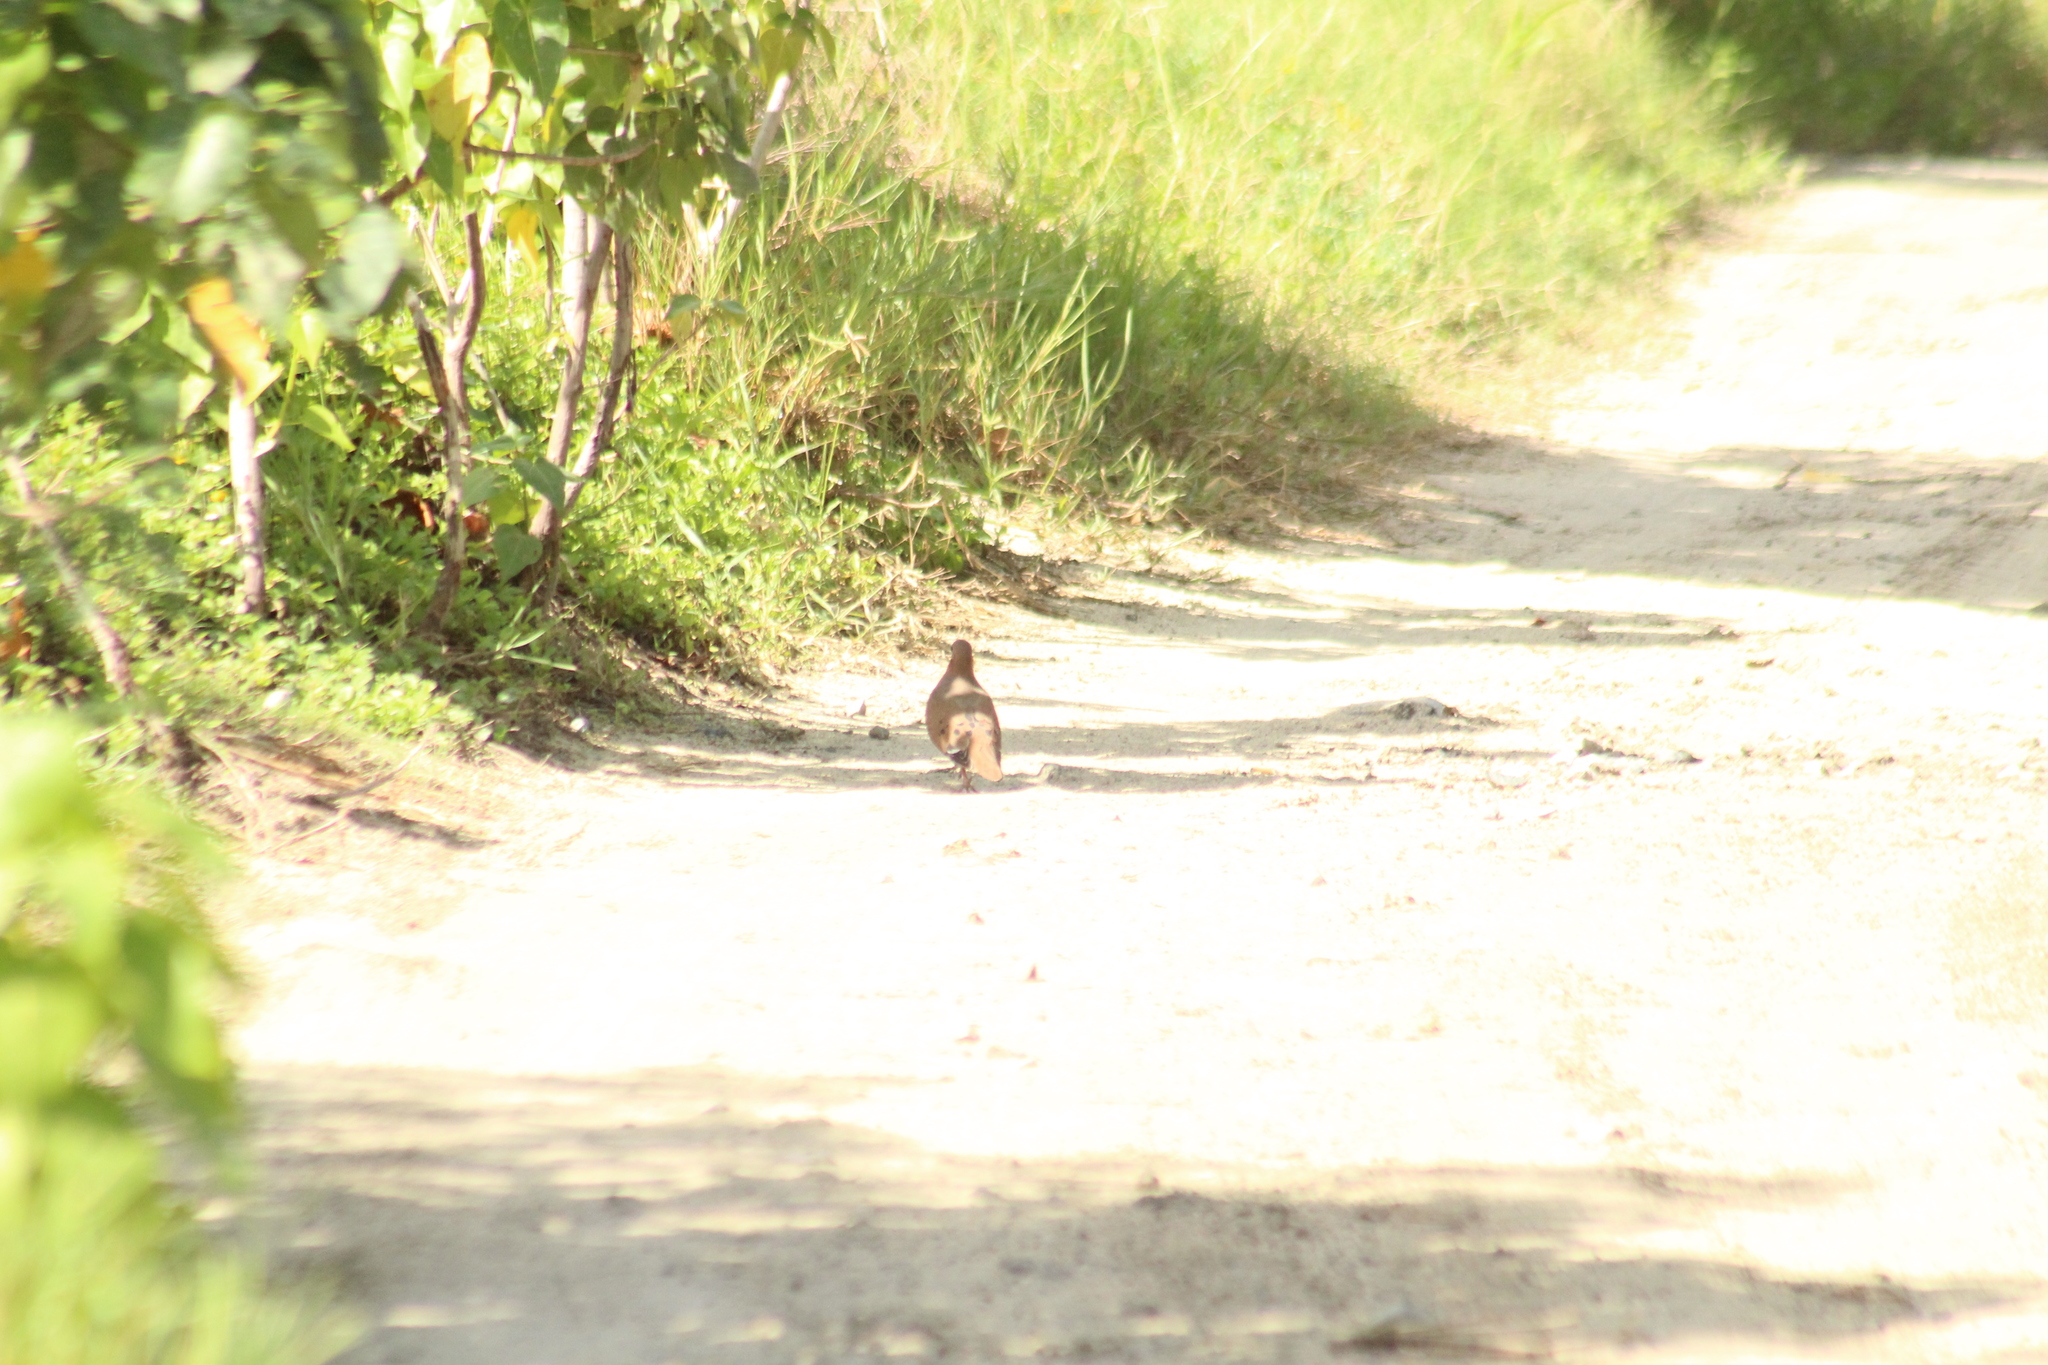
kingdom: Animalia
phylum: Chordata
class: Aves
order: Columbiformes
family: Columbidae
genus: Zenaida
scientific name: Zenaida aurita
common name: Zenaida dove
